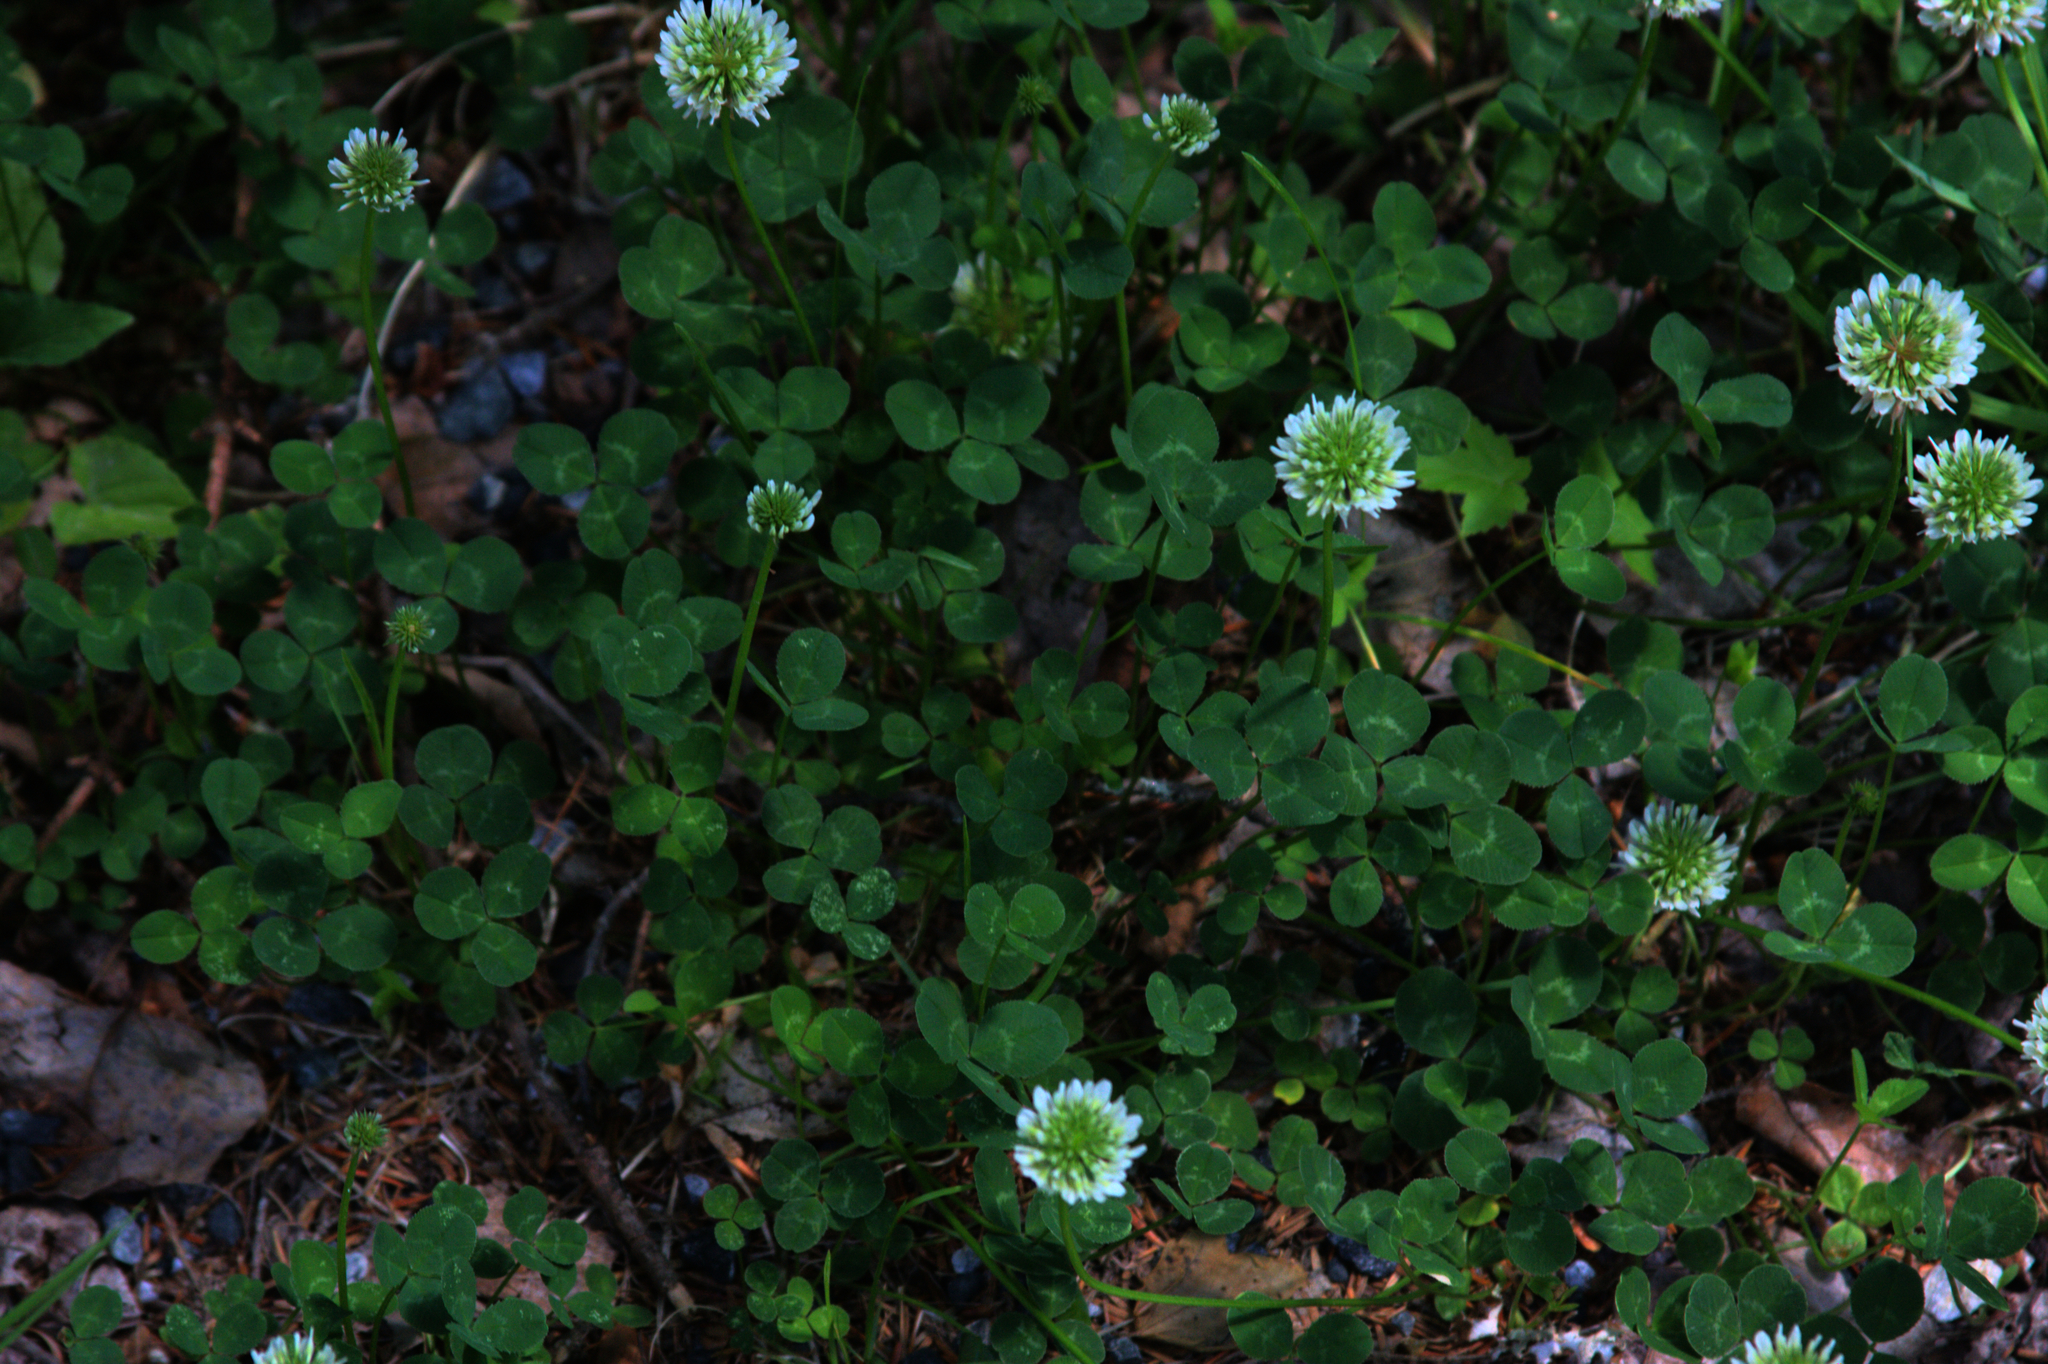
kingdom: Plantae
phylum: Tracheophyta
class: Magnoliopsida
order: Fabales
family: Fabaceae
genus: Trifolium
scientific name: Trifolium repens
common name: White clover
